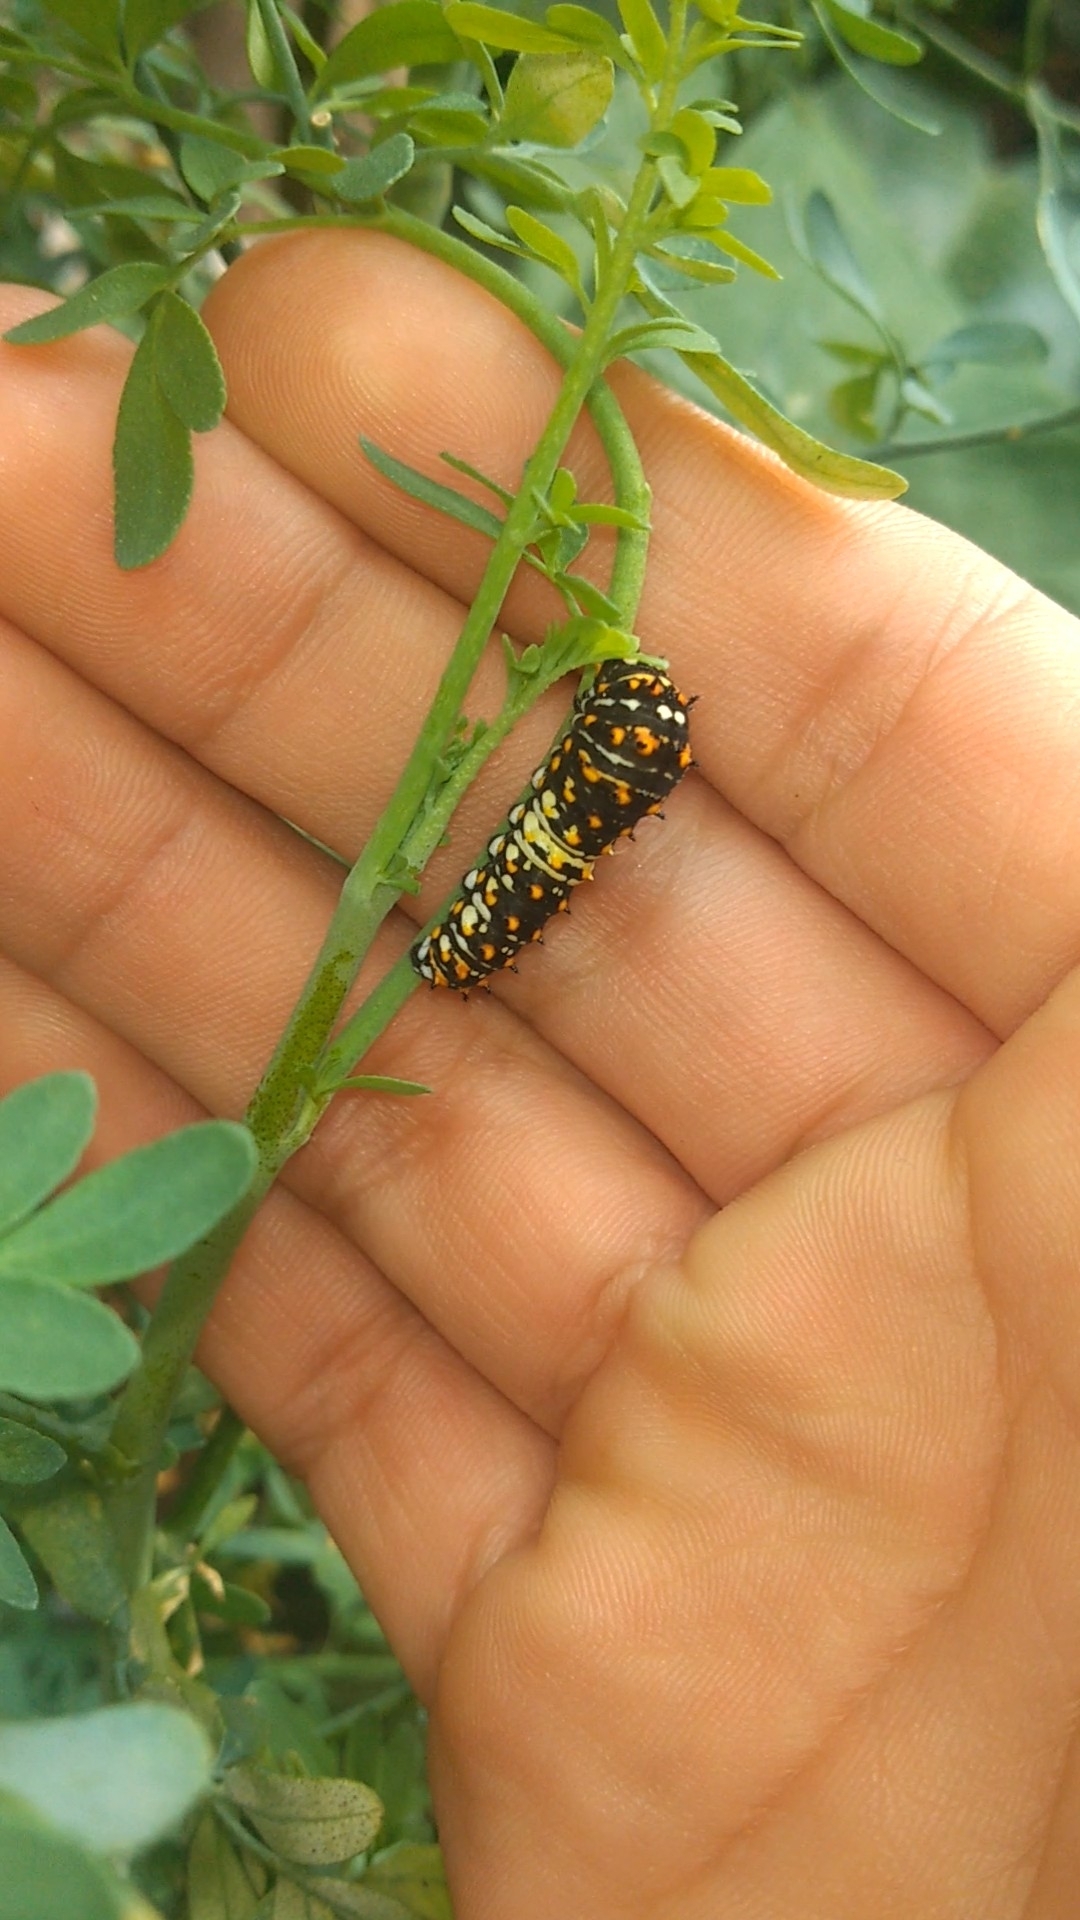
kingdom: Animalia
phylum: Arthropoda
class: Insecta
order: Lepidoptera
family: Papilionidae
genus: Papilio
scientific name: Papilio polyxenes
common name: Black swallowtail
